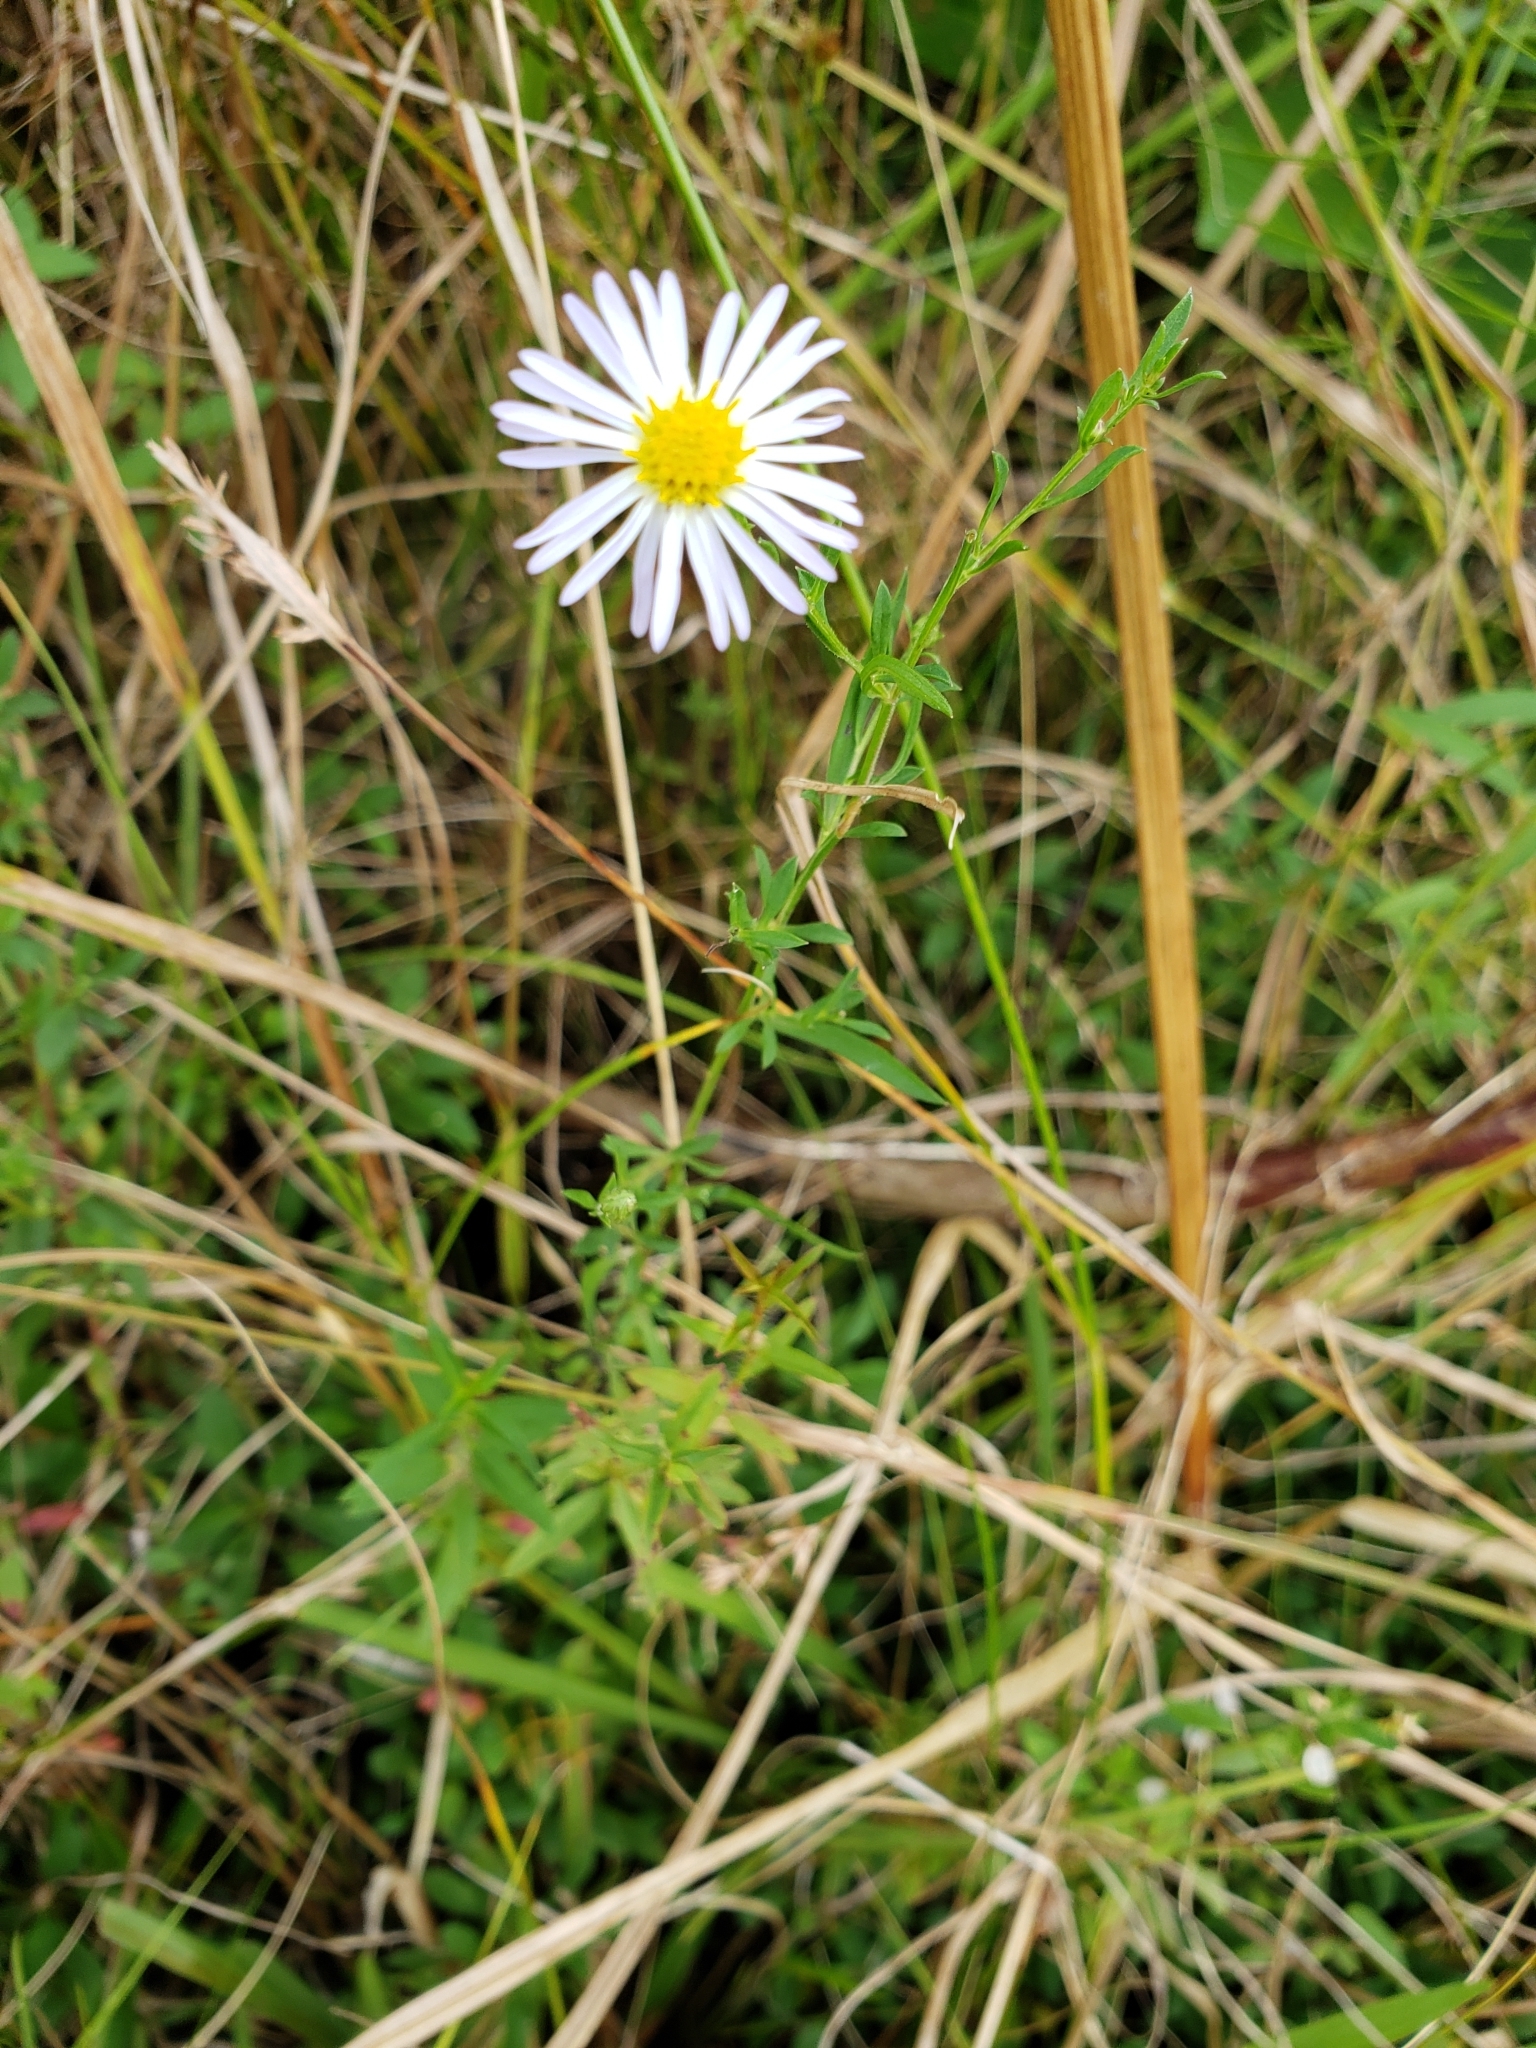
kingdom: Plantae
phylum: Tracheophyta
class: Magnoliopsida
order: Asterales
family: Asteraceae
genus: Symphyotrichum
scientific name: Symphyotrichum dumosum
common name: Bushy aster
